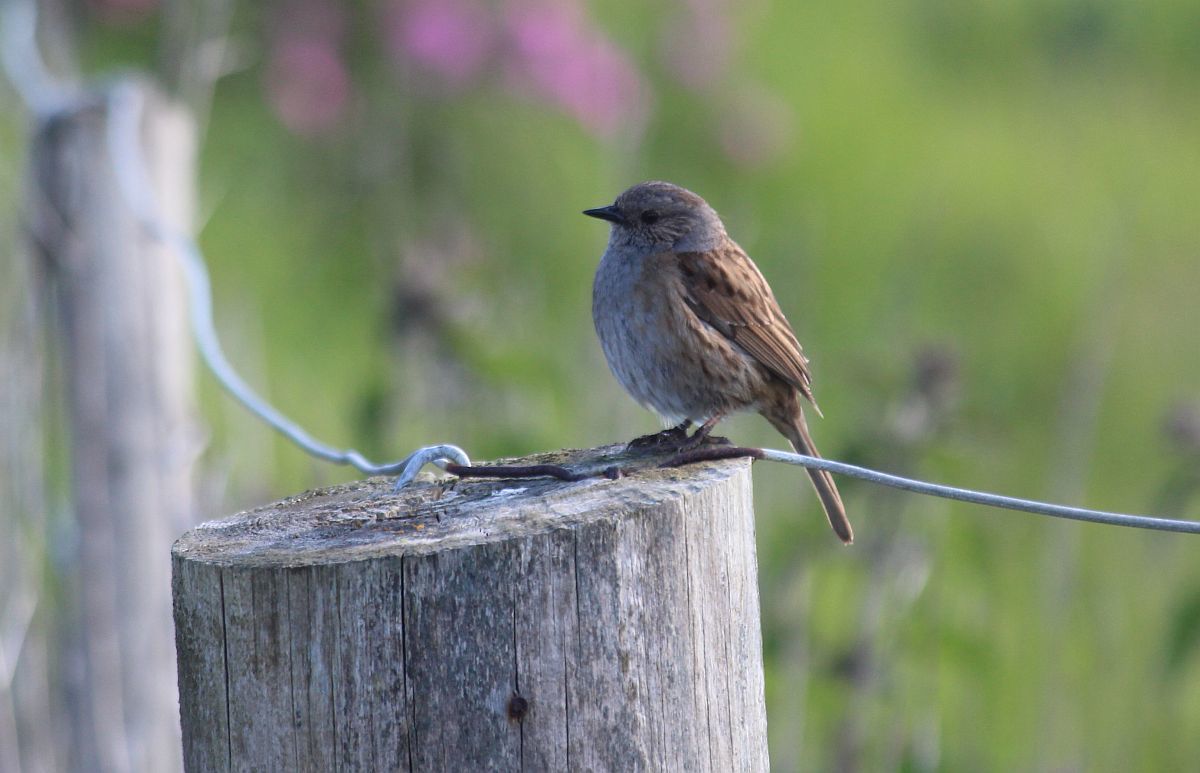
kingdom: Animalia
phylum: Chordata
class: Aves
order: Passeriformes
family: Prunellidae
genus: Prunella
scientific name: Prunella modularis
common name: Dunnock
